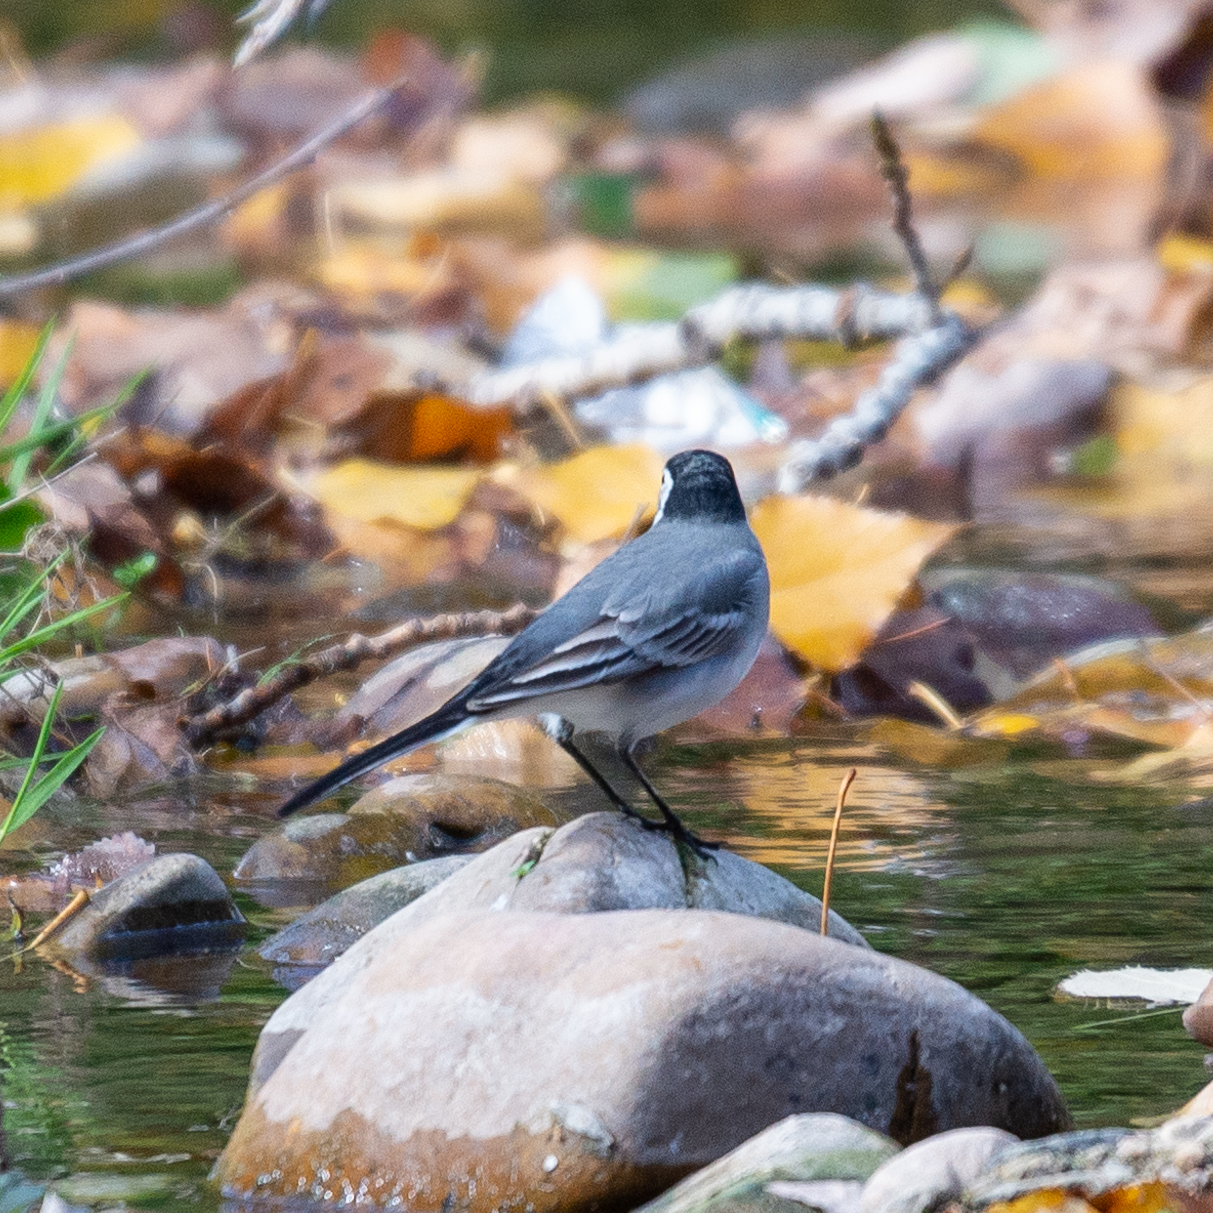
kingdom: Animalia
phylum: Chordata
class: Aves
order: Passeriformes
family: Motacillidae
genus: Motacilla
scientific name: Motacilla alba
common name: White wagtail
